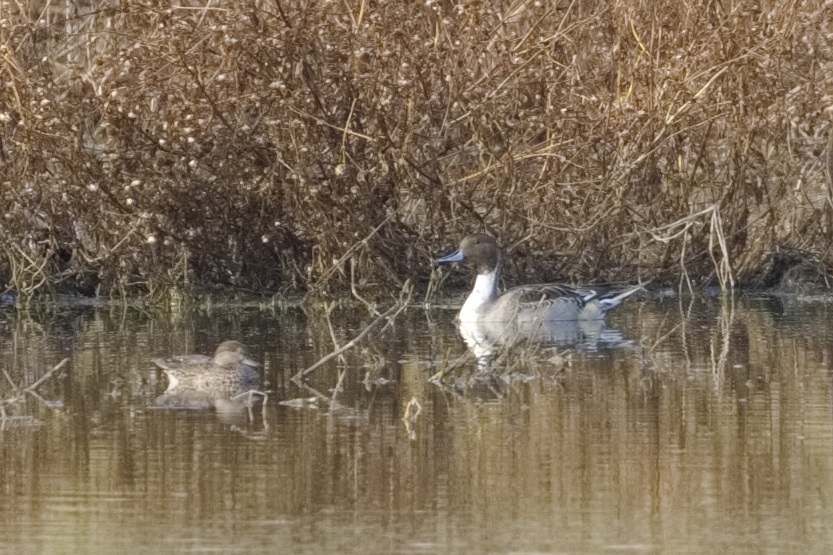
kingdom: Animalia
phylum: Chordata
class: Aves
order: Anseriformes
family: Anatidae
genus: Anas
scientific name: Anas acuta
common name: Northern pintail
